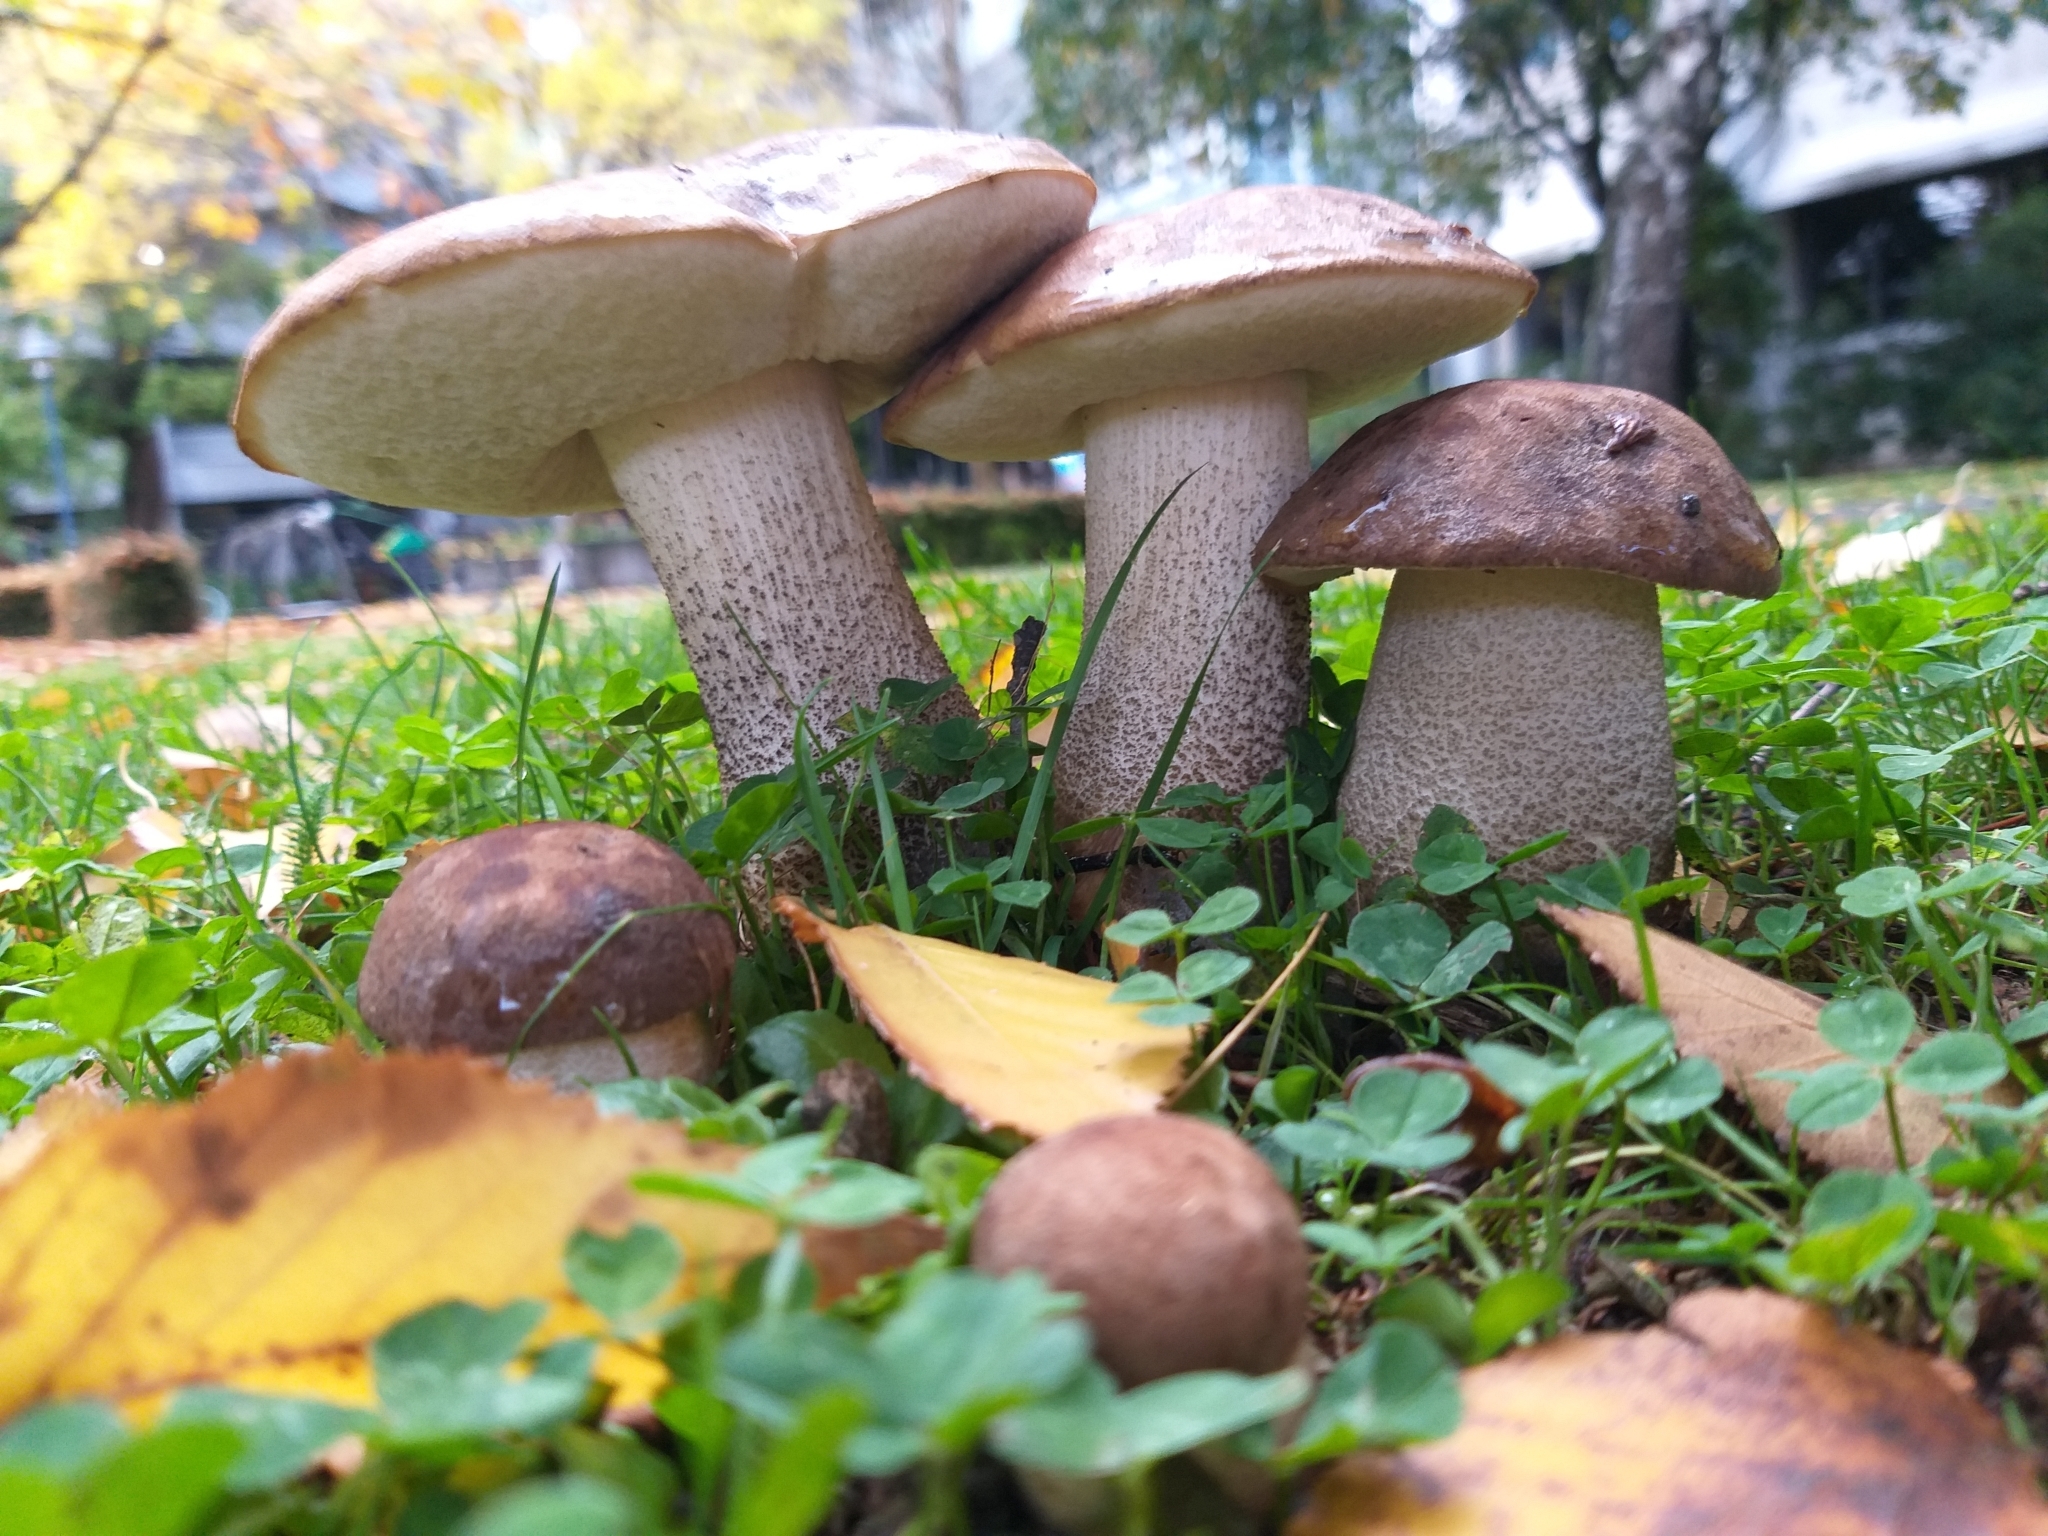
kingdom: Fungi
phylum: Basidiomycota
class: Agaricomycetes
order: Boletales
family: Boletaceae
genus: Leccinum
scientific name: Leccinum scabrum
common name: Blushing bolete
